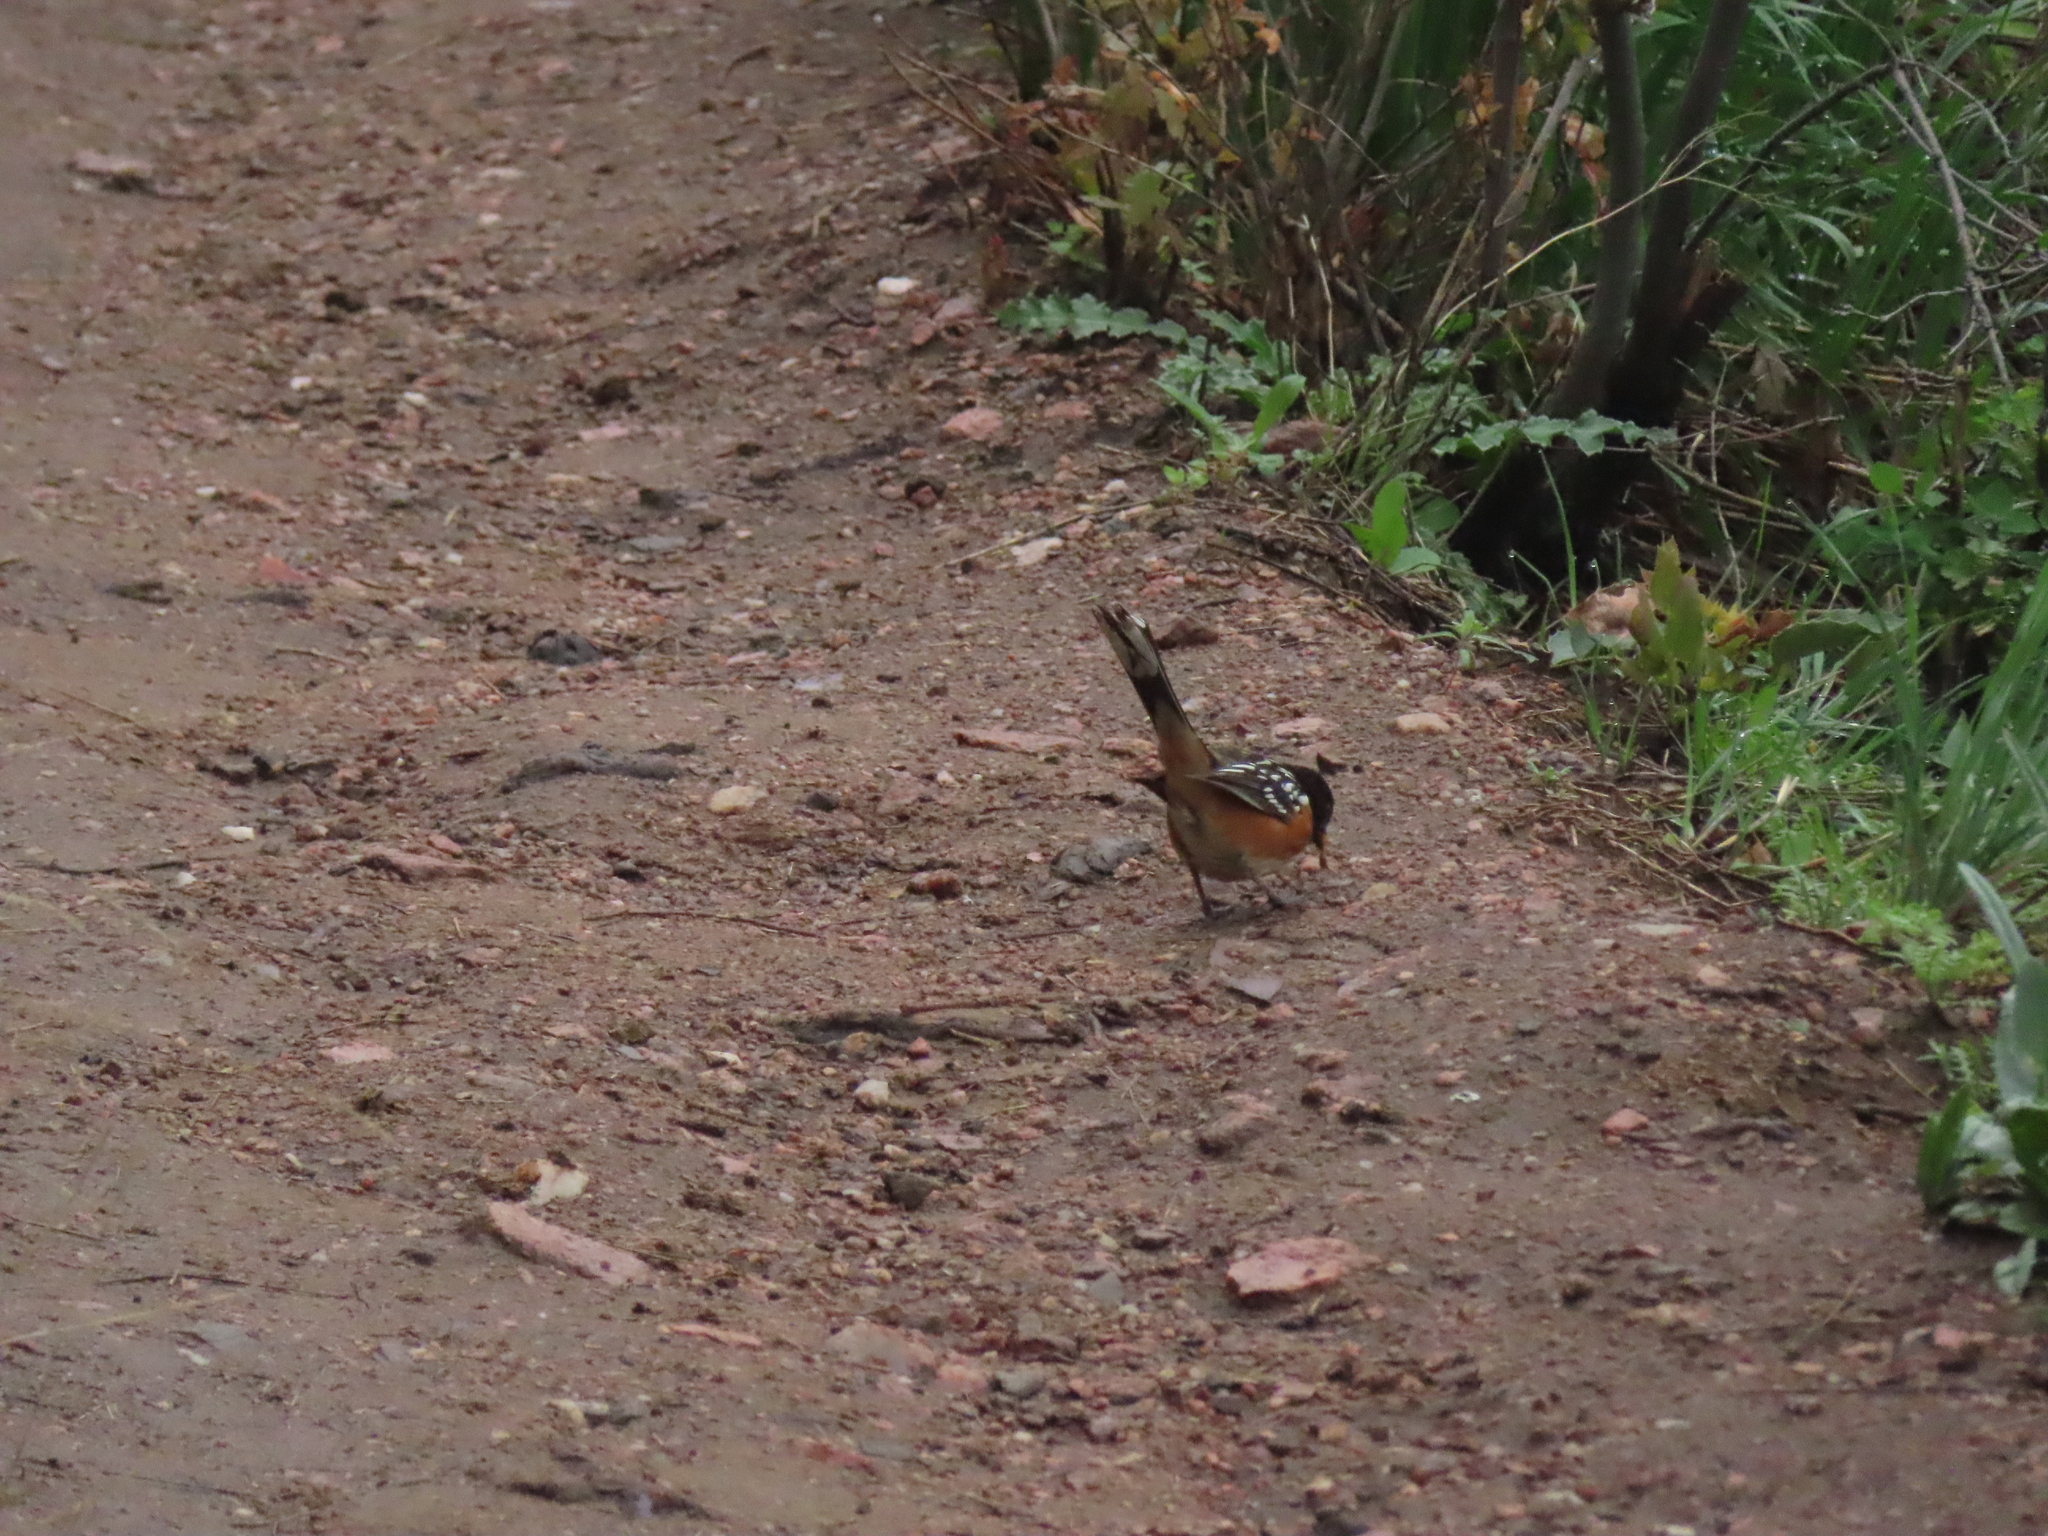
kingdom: Animalia
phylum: Chordata
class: Aves
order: Passeriformes
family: Passerellidae
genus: Pipilo
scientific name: Pipilo maculatus
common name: Spotted towhee
